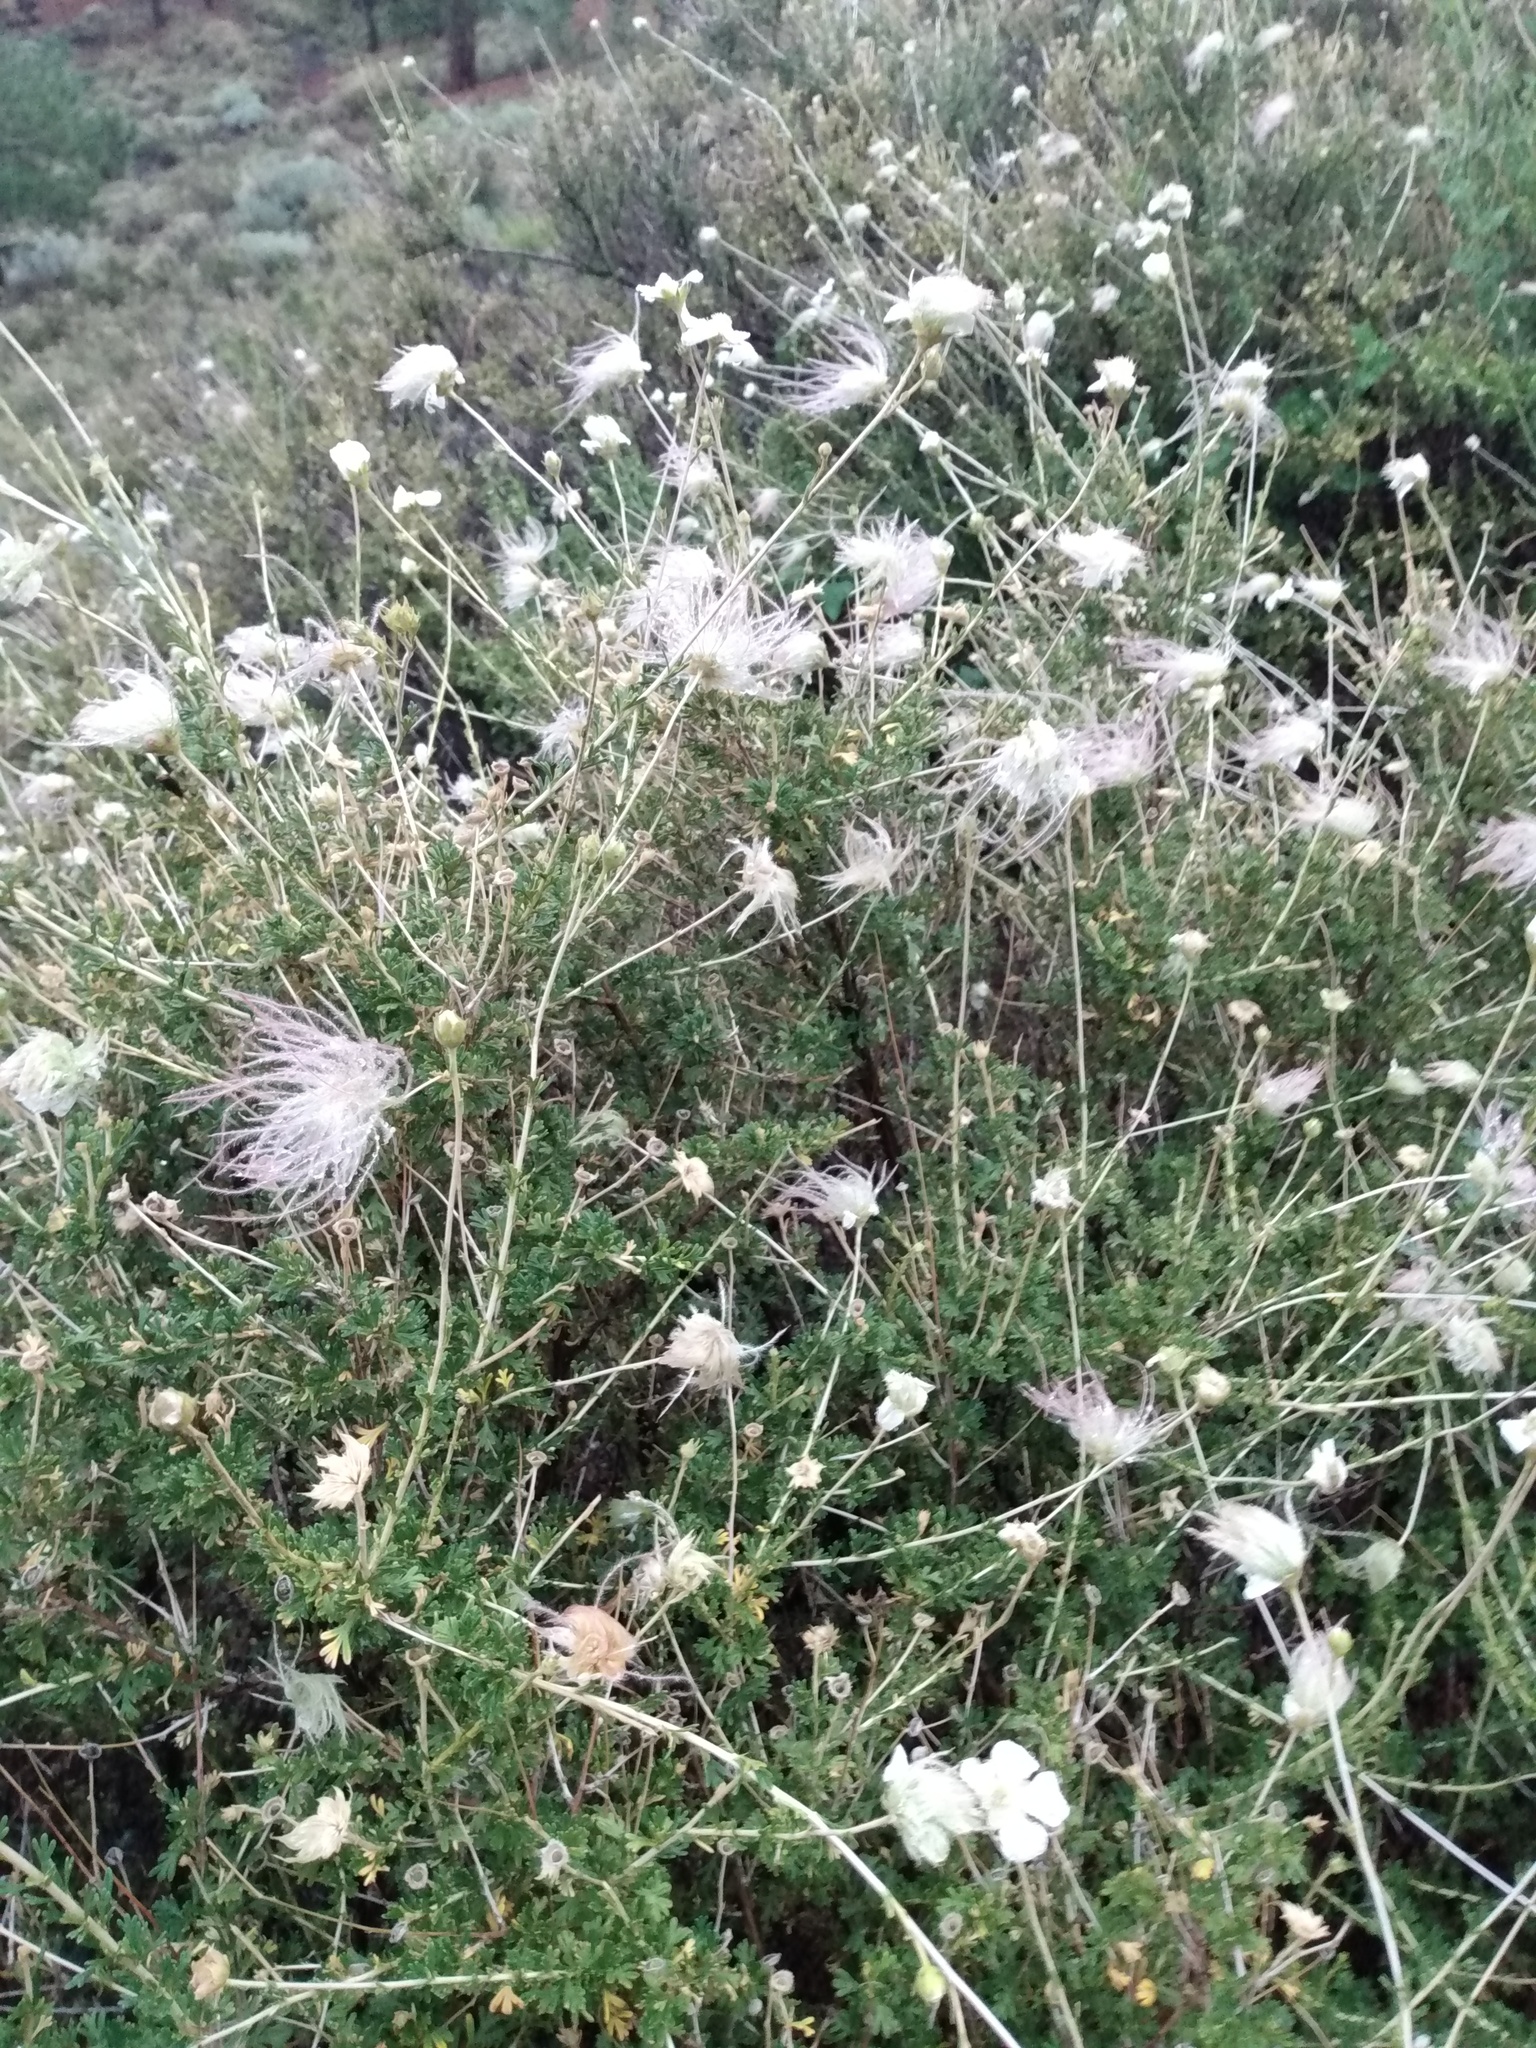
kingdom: Plantae
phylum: Tracheophyta
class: Magnoliopsida
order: Rosales
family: Rosaceae
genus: Fallugia
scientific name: Fallugia paradoxa
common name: Apache-plume
